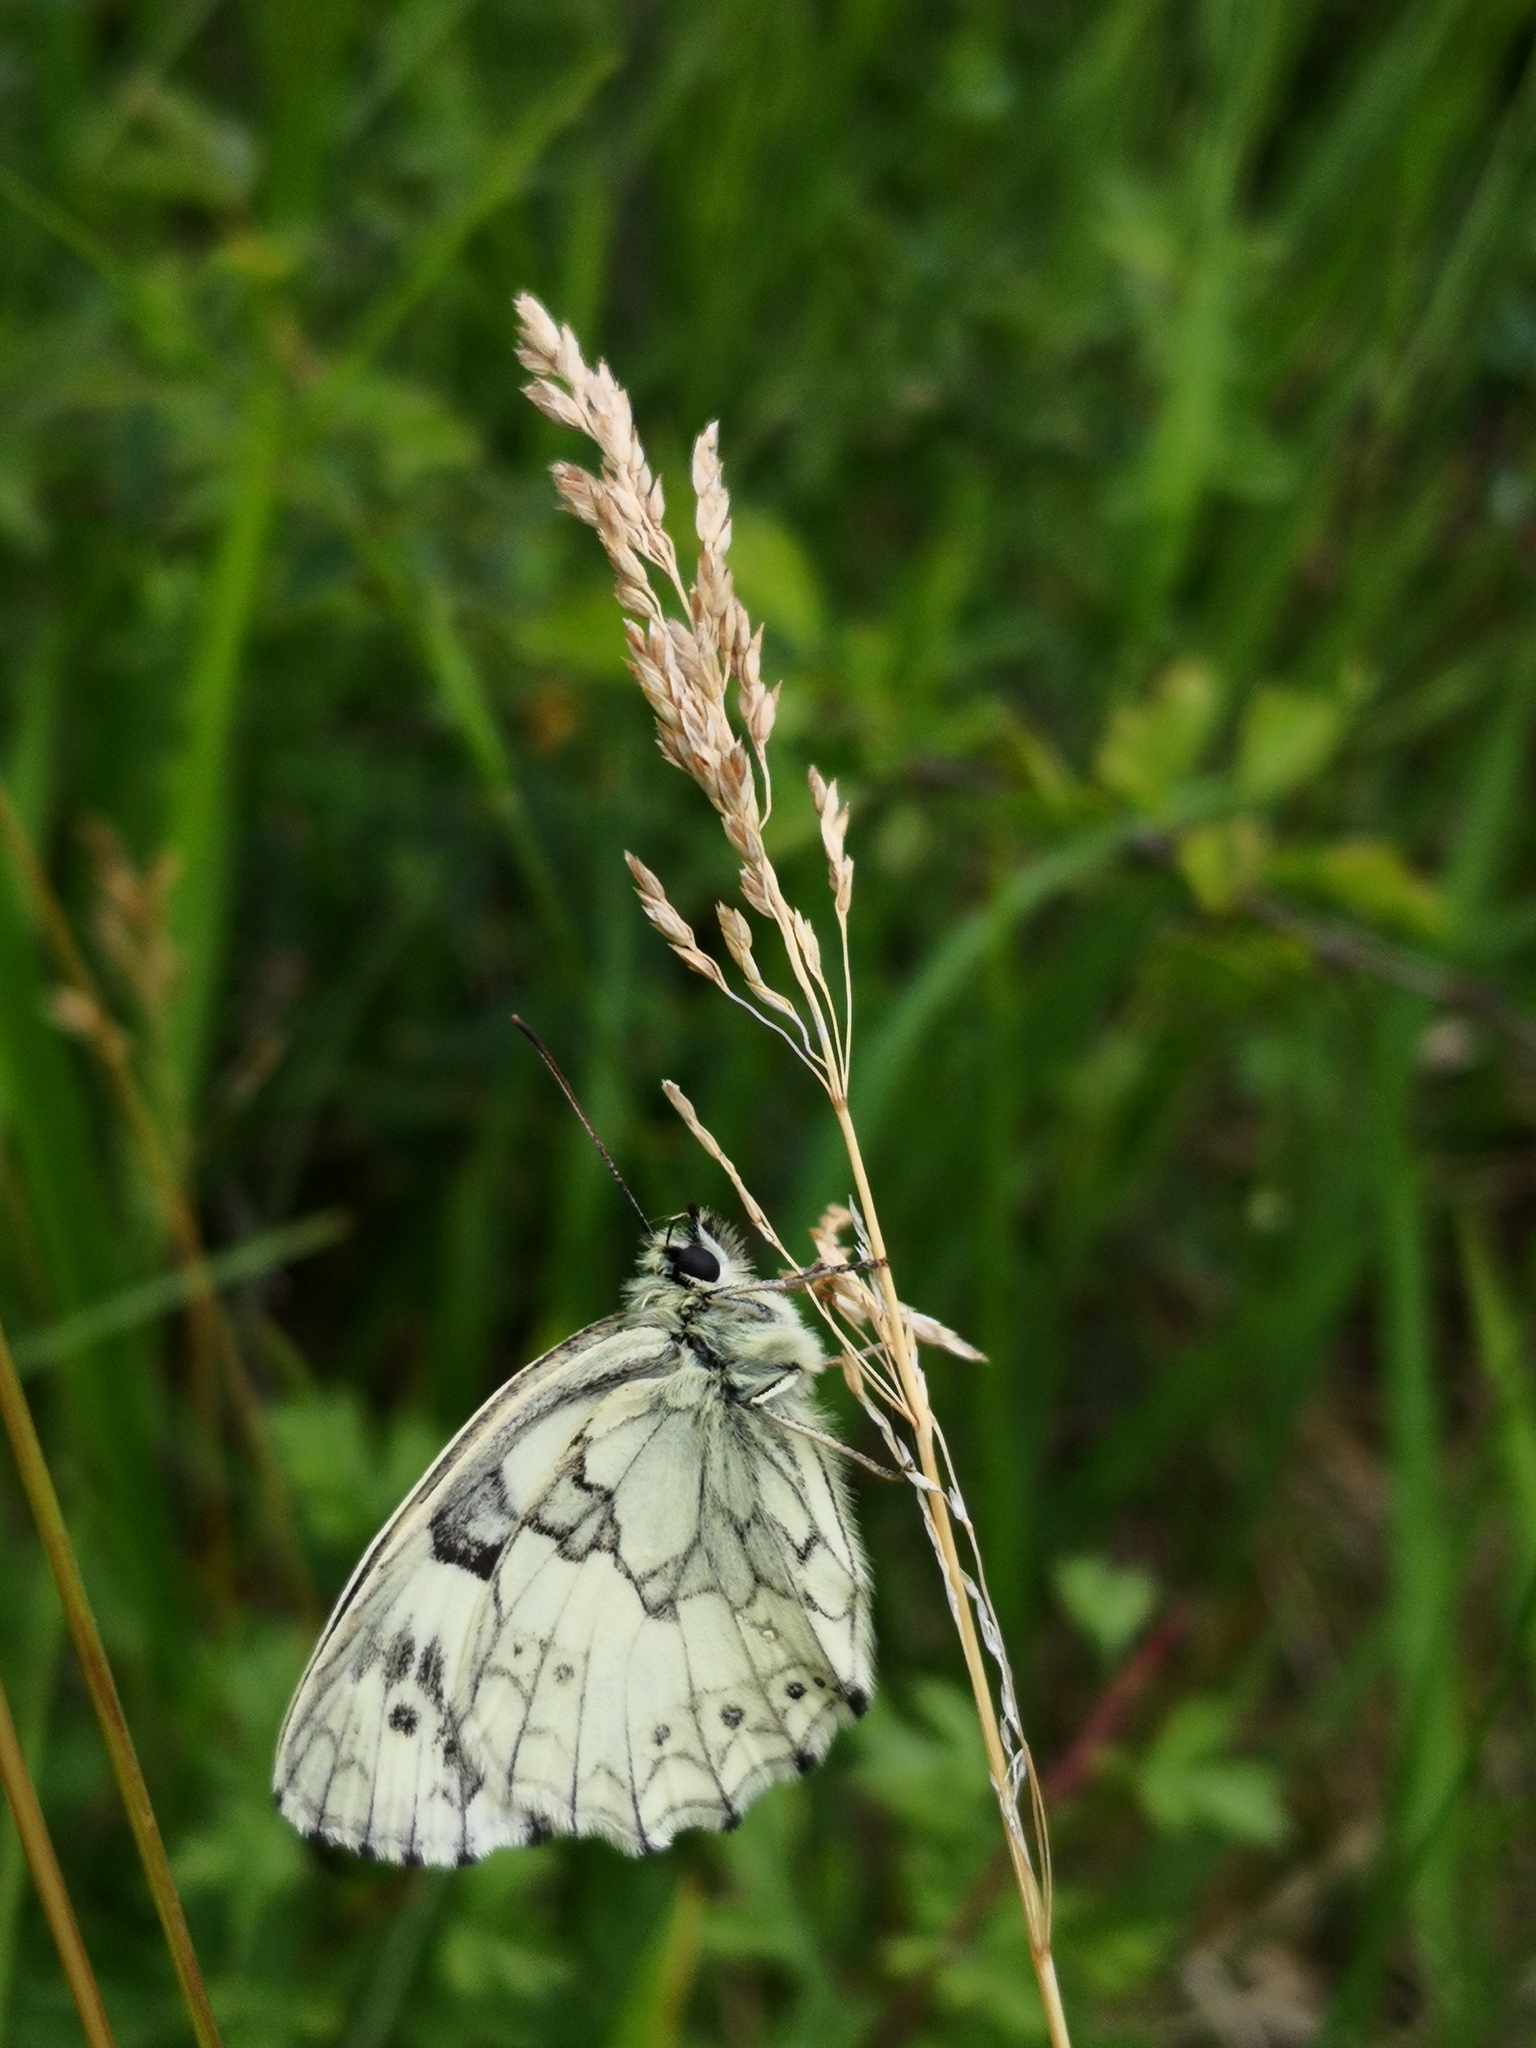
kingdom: Animalia
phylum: Arthropoda
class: Insecta
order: Lepidoptera
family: Nymphalidae
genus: Melanargia
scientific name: Melanargia galathea
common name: Marbled white
